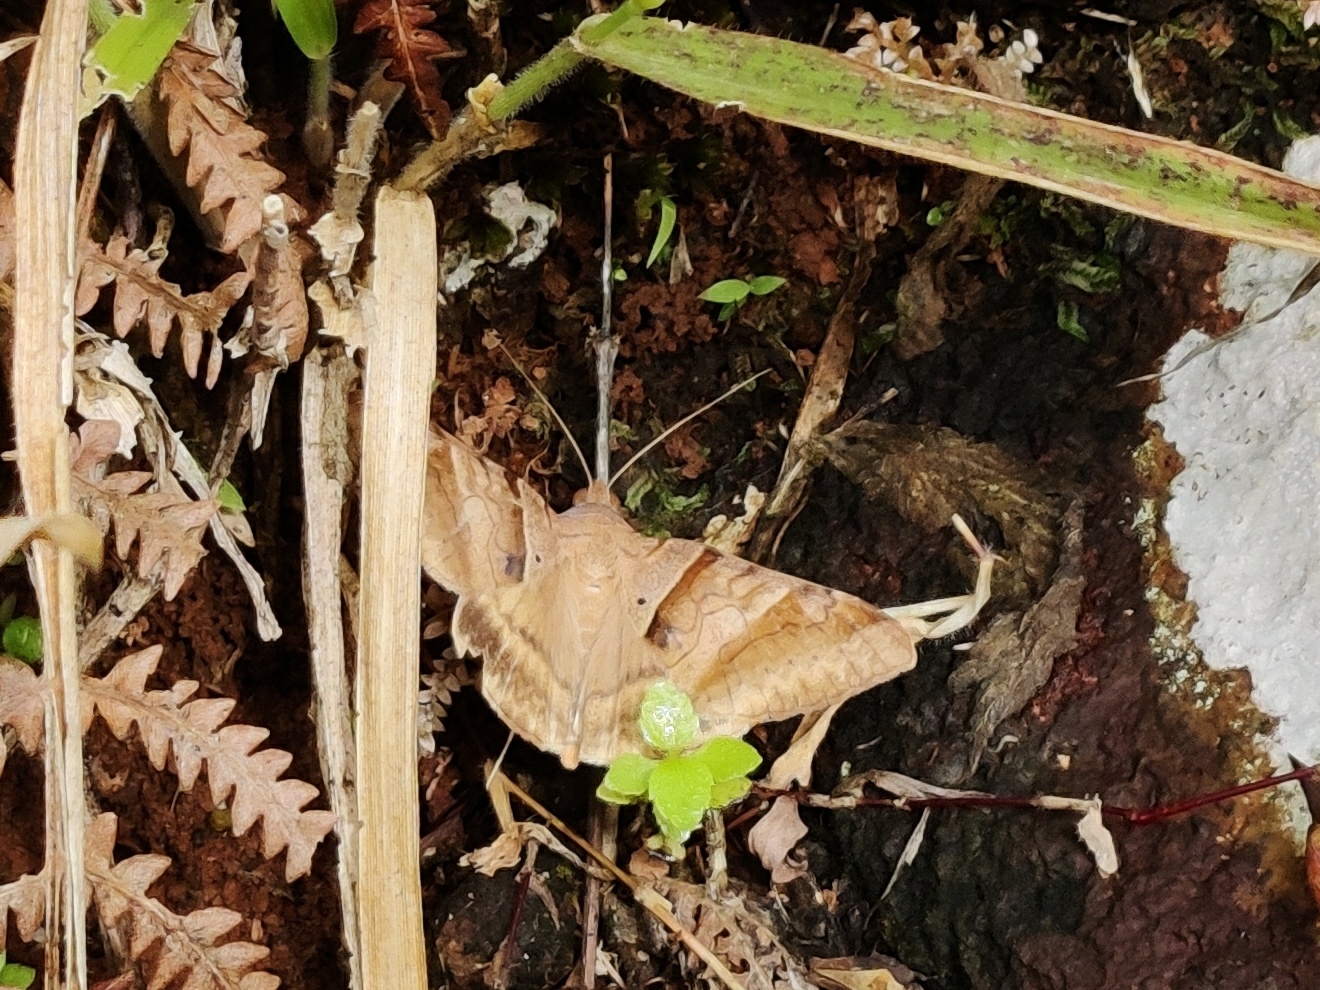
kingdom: Animalia
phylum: Arthropoda
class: Insecta
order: Lepidoptera
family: Erebidae
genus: Mocis
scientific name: Mocis undata
